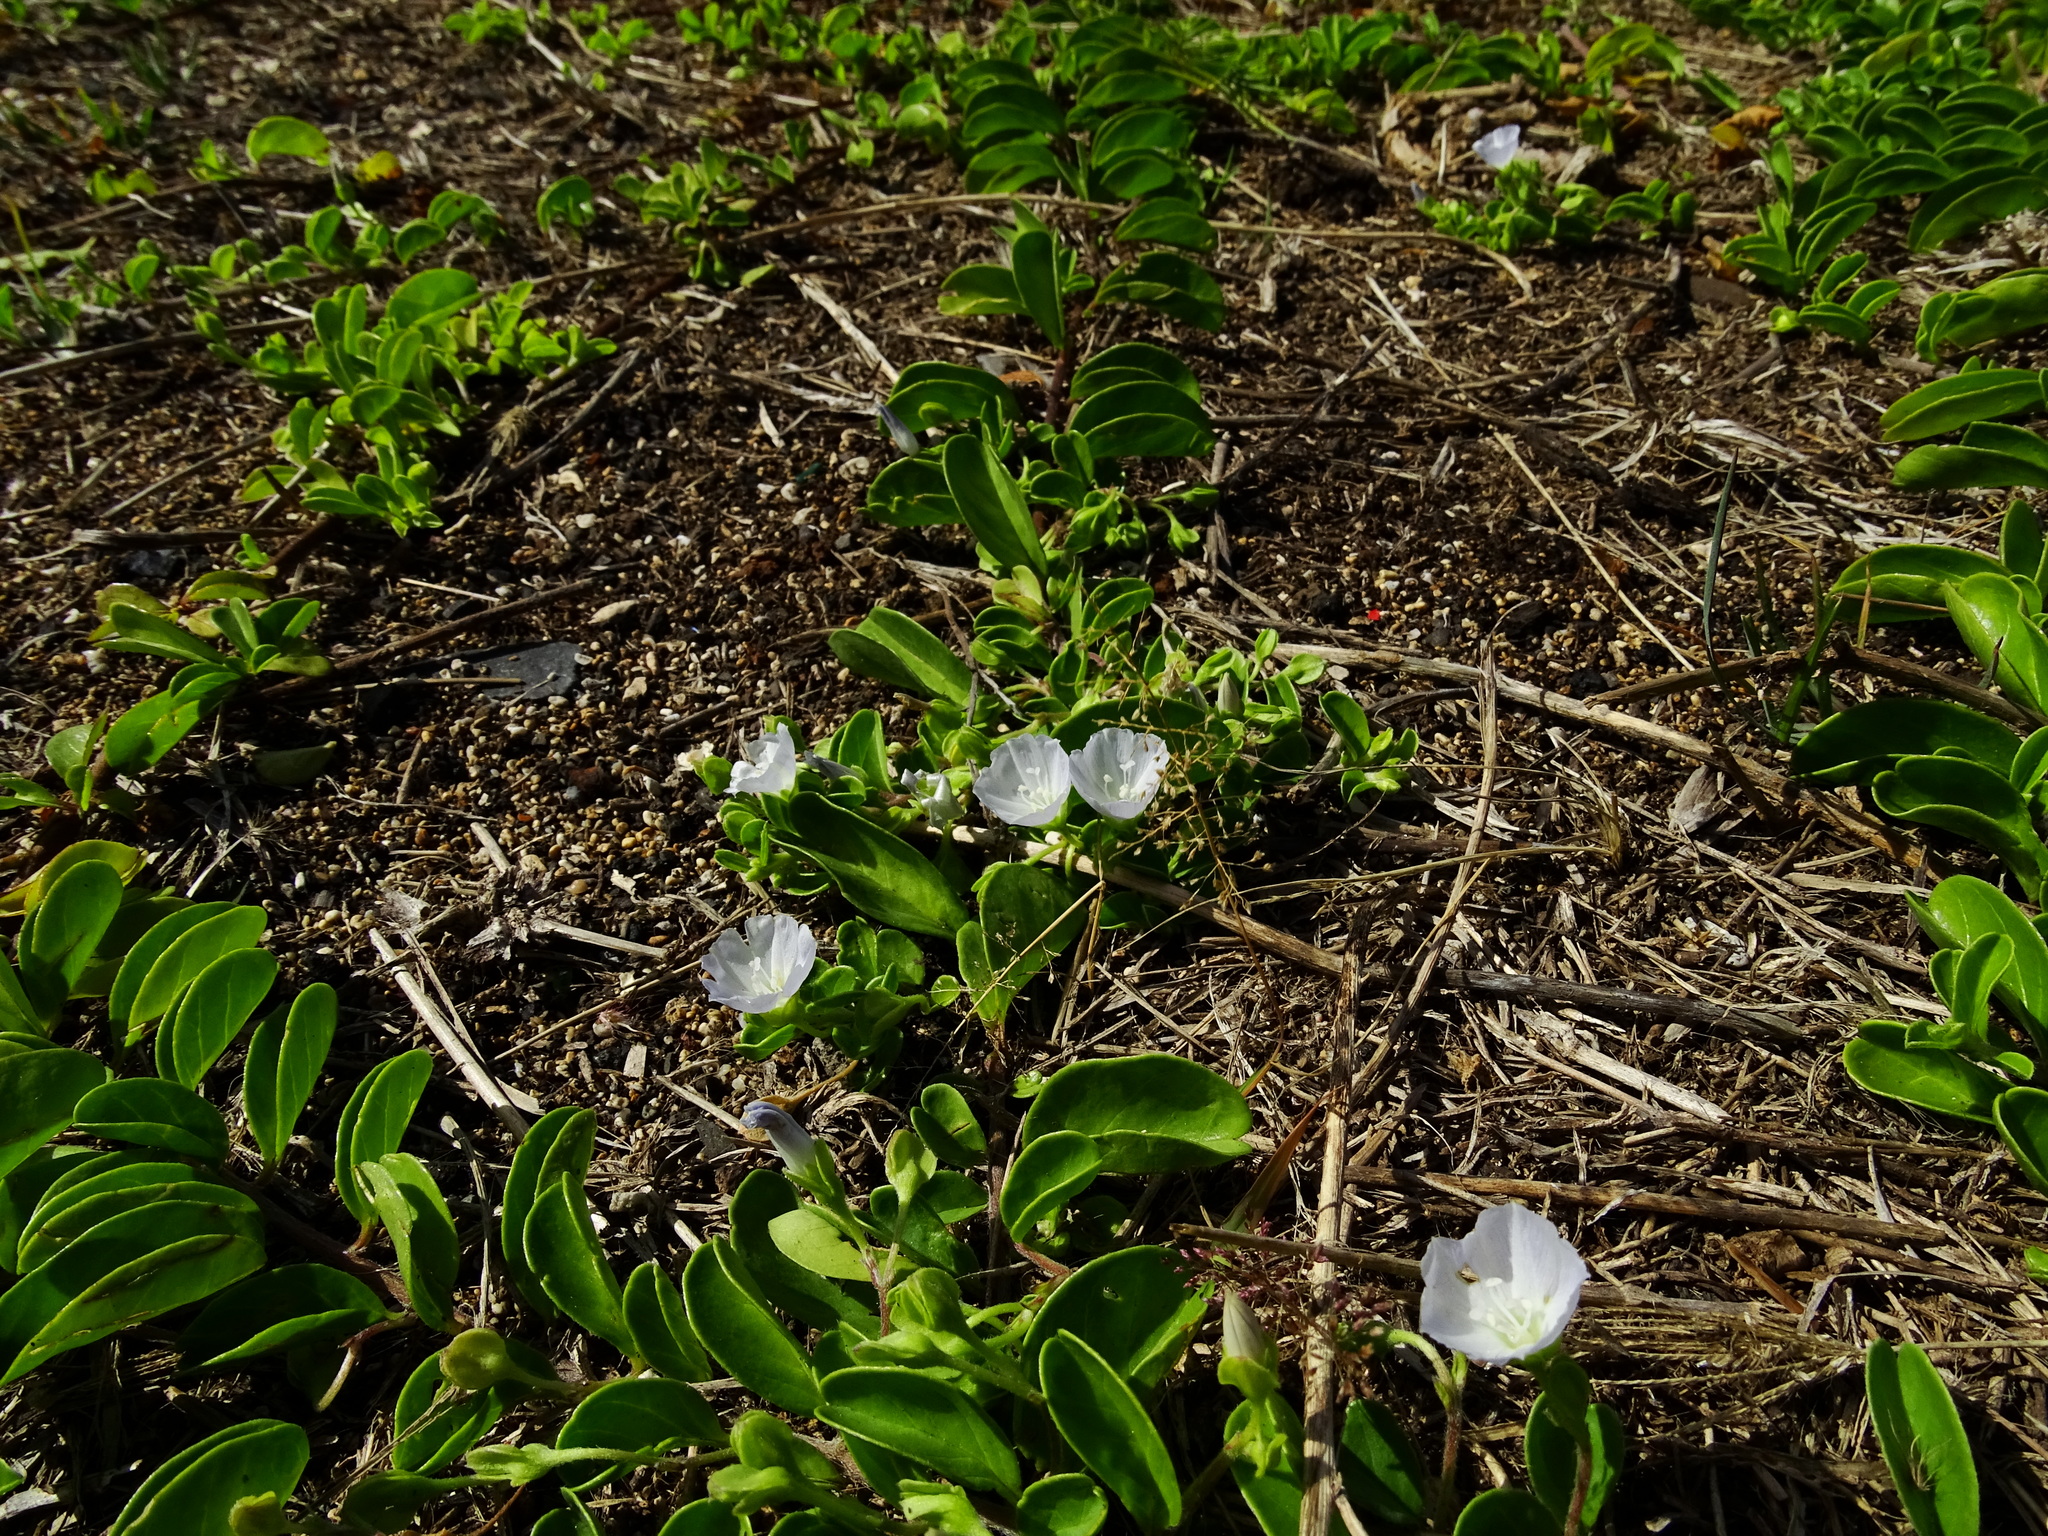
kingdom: Plantae
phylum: Tracheophyta
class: Magnoliopsida
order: Solanales
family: Convolvulaceae
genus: Jacquemontia
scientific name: Jacquemontia sandwicensis
